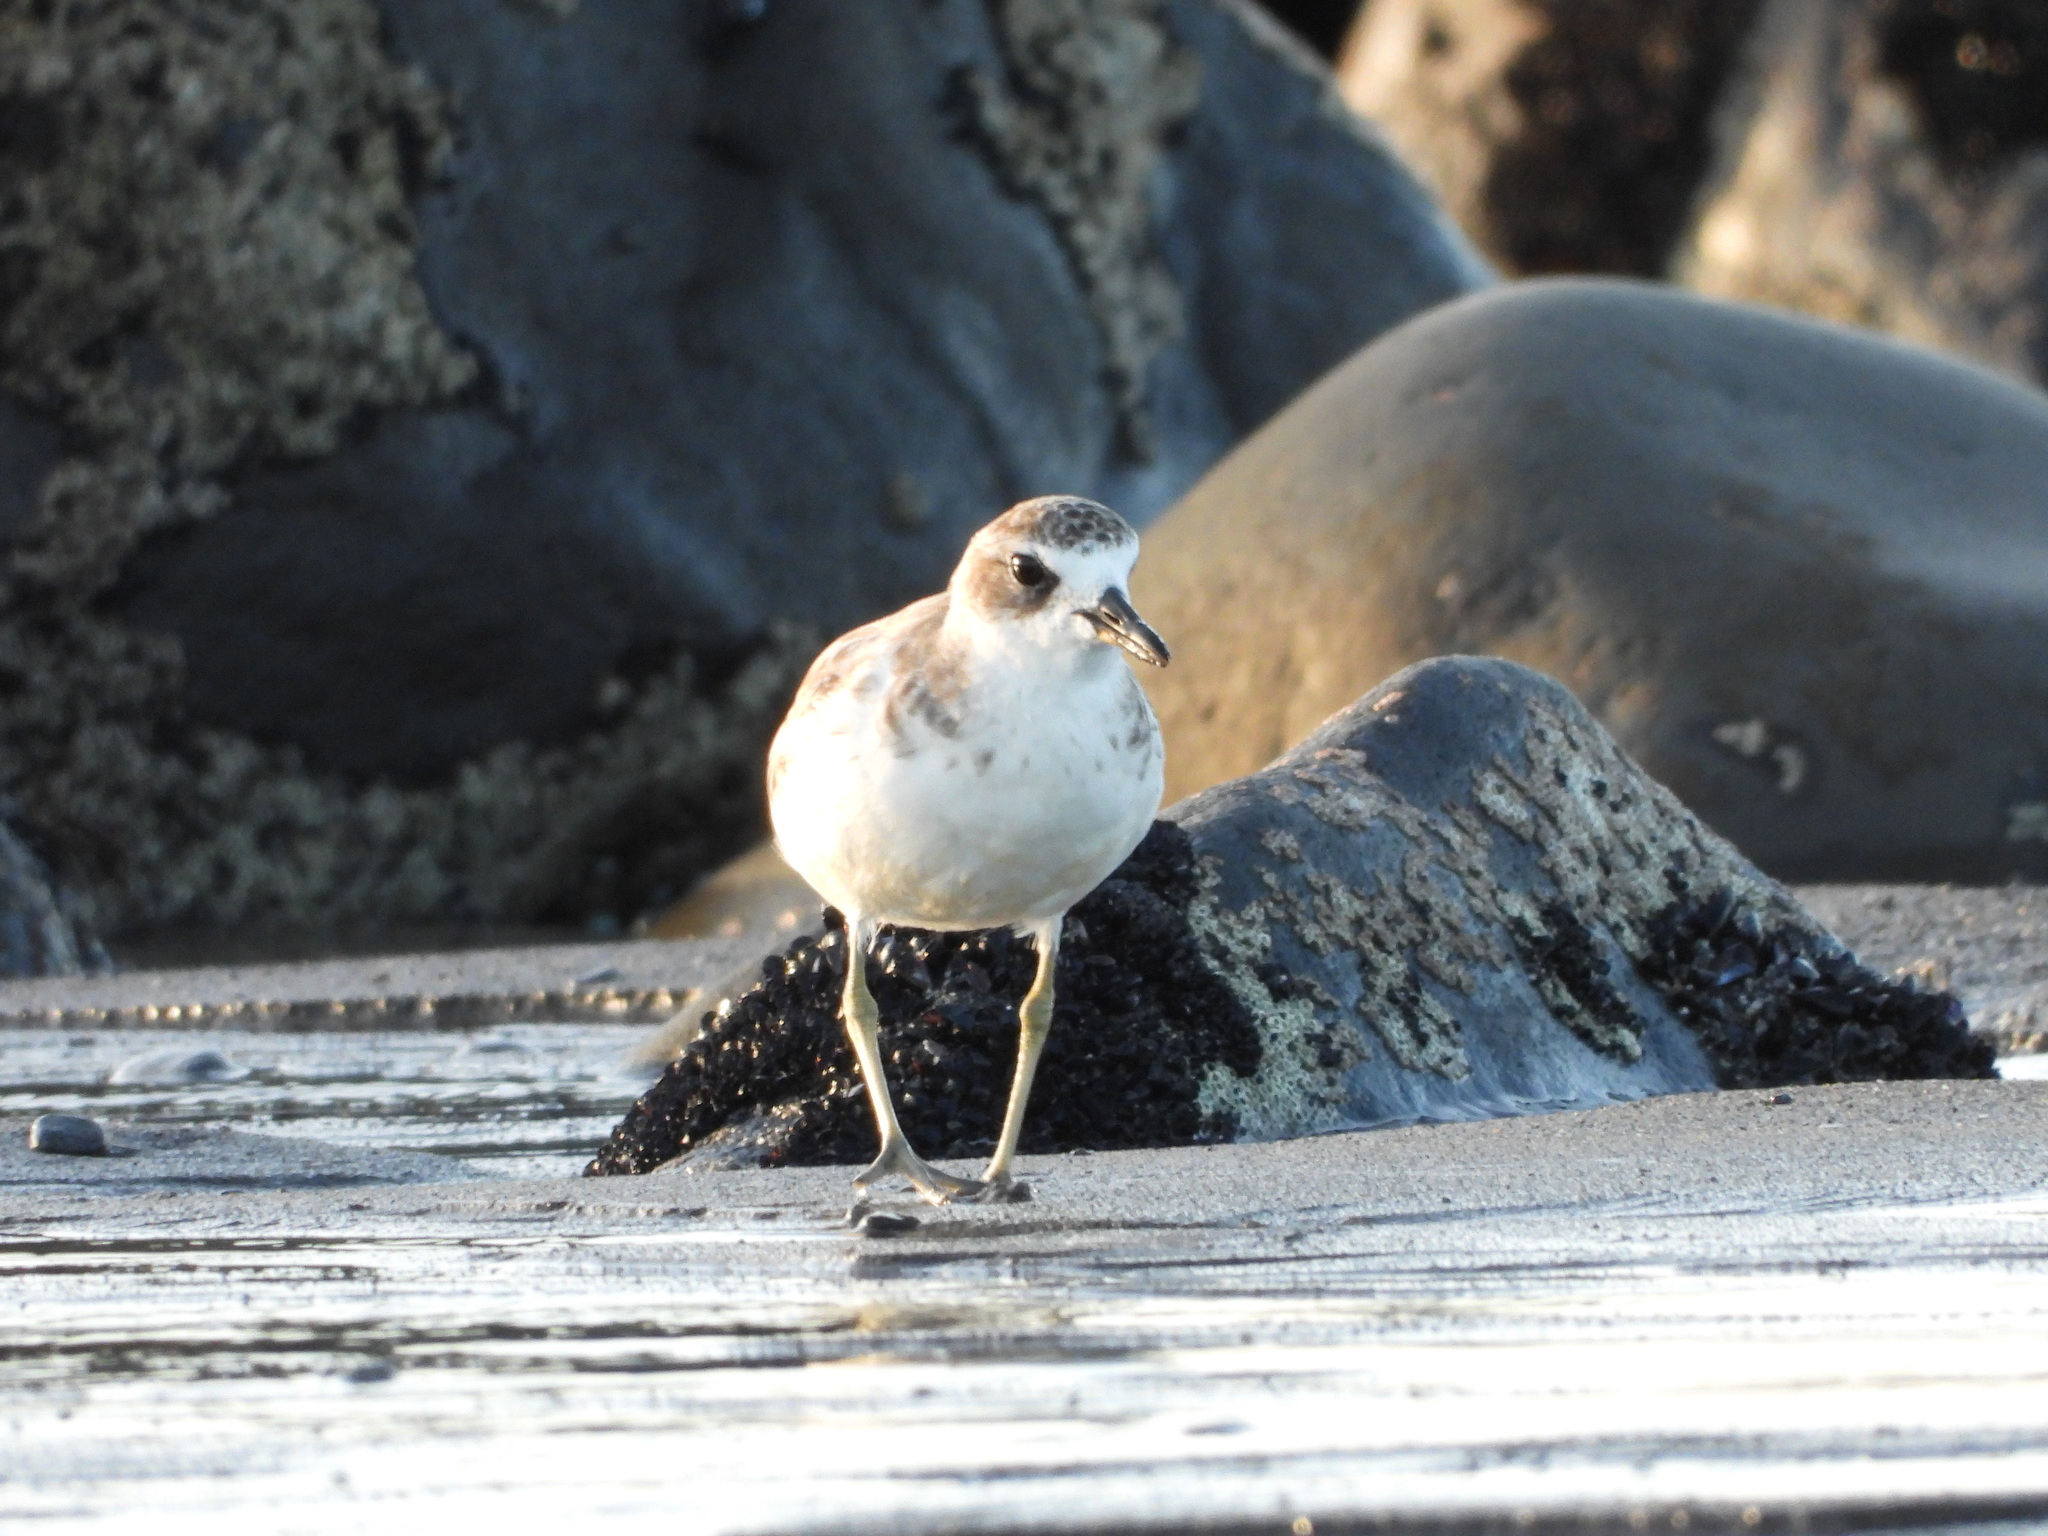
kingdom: Animalia
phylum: Chordata
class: Aves
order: Charadriiformes
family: Charadriidae
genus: Anarhynchus
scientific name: Anarhynchus
